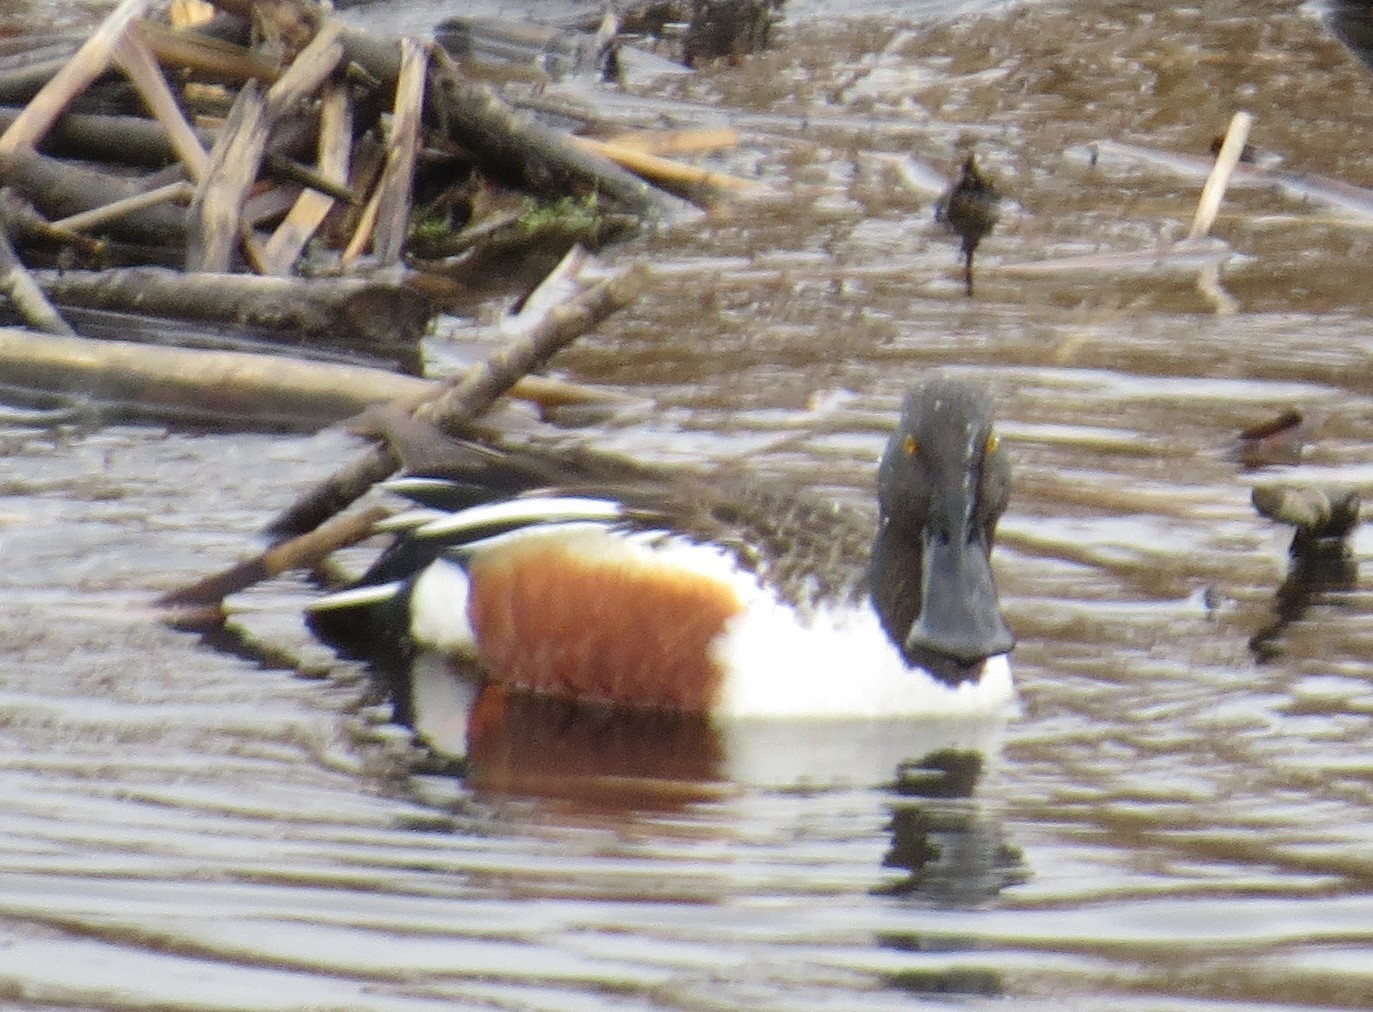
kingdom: Animalia
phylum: Chordata
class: Aves
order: Anseriformes
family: Anatidae
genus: Spatula
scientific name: Spatula clypeata
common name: Northern shoveler
